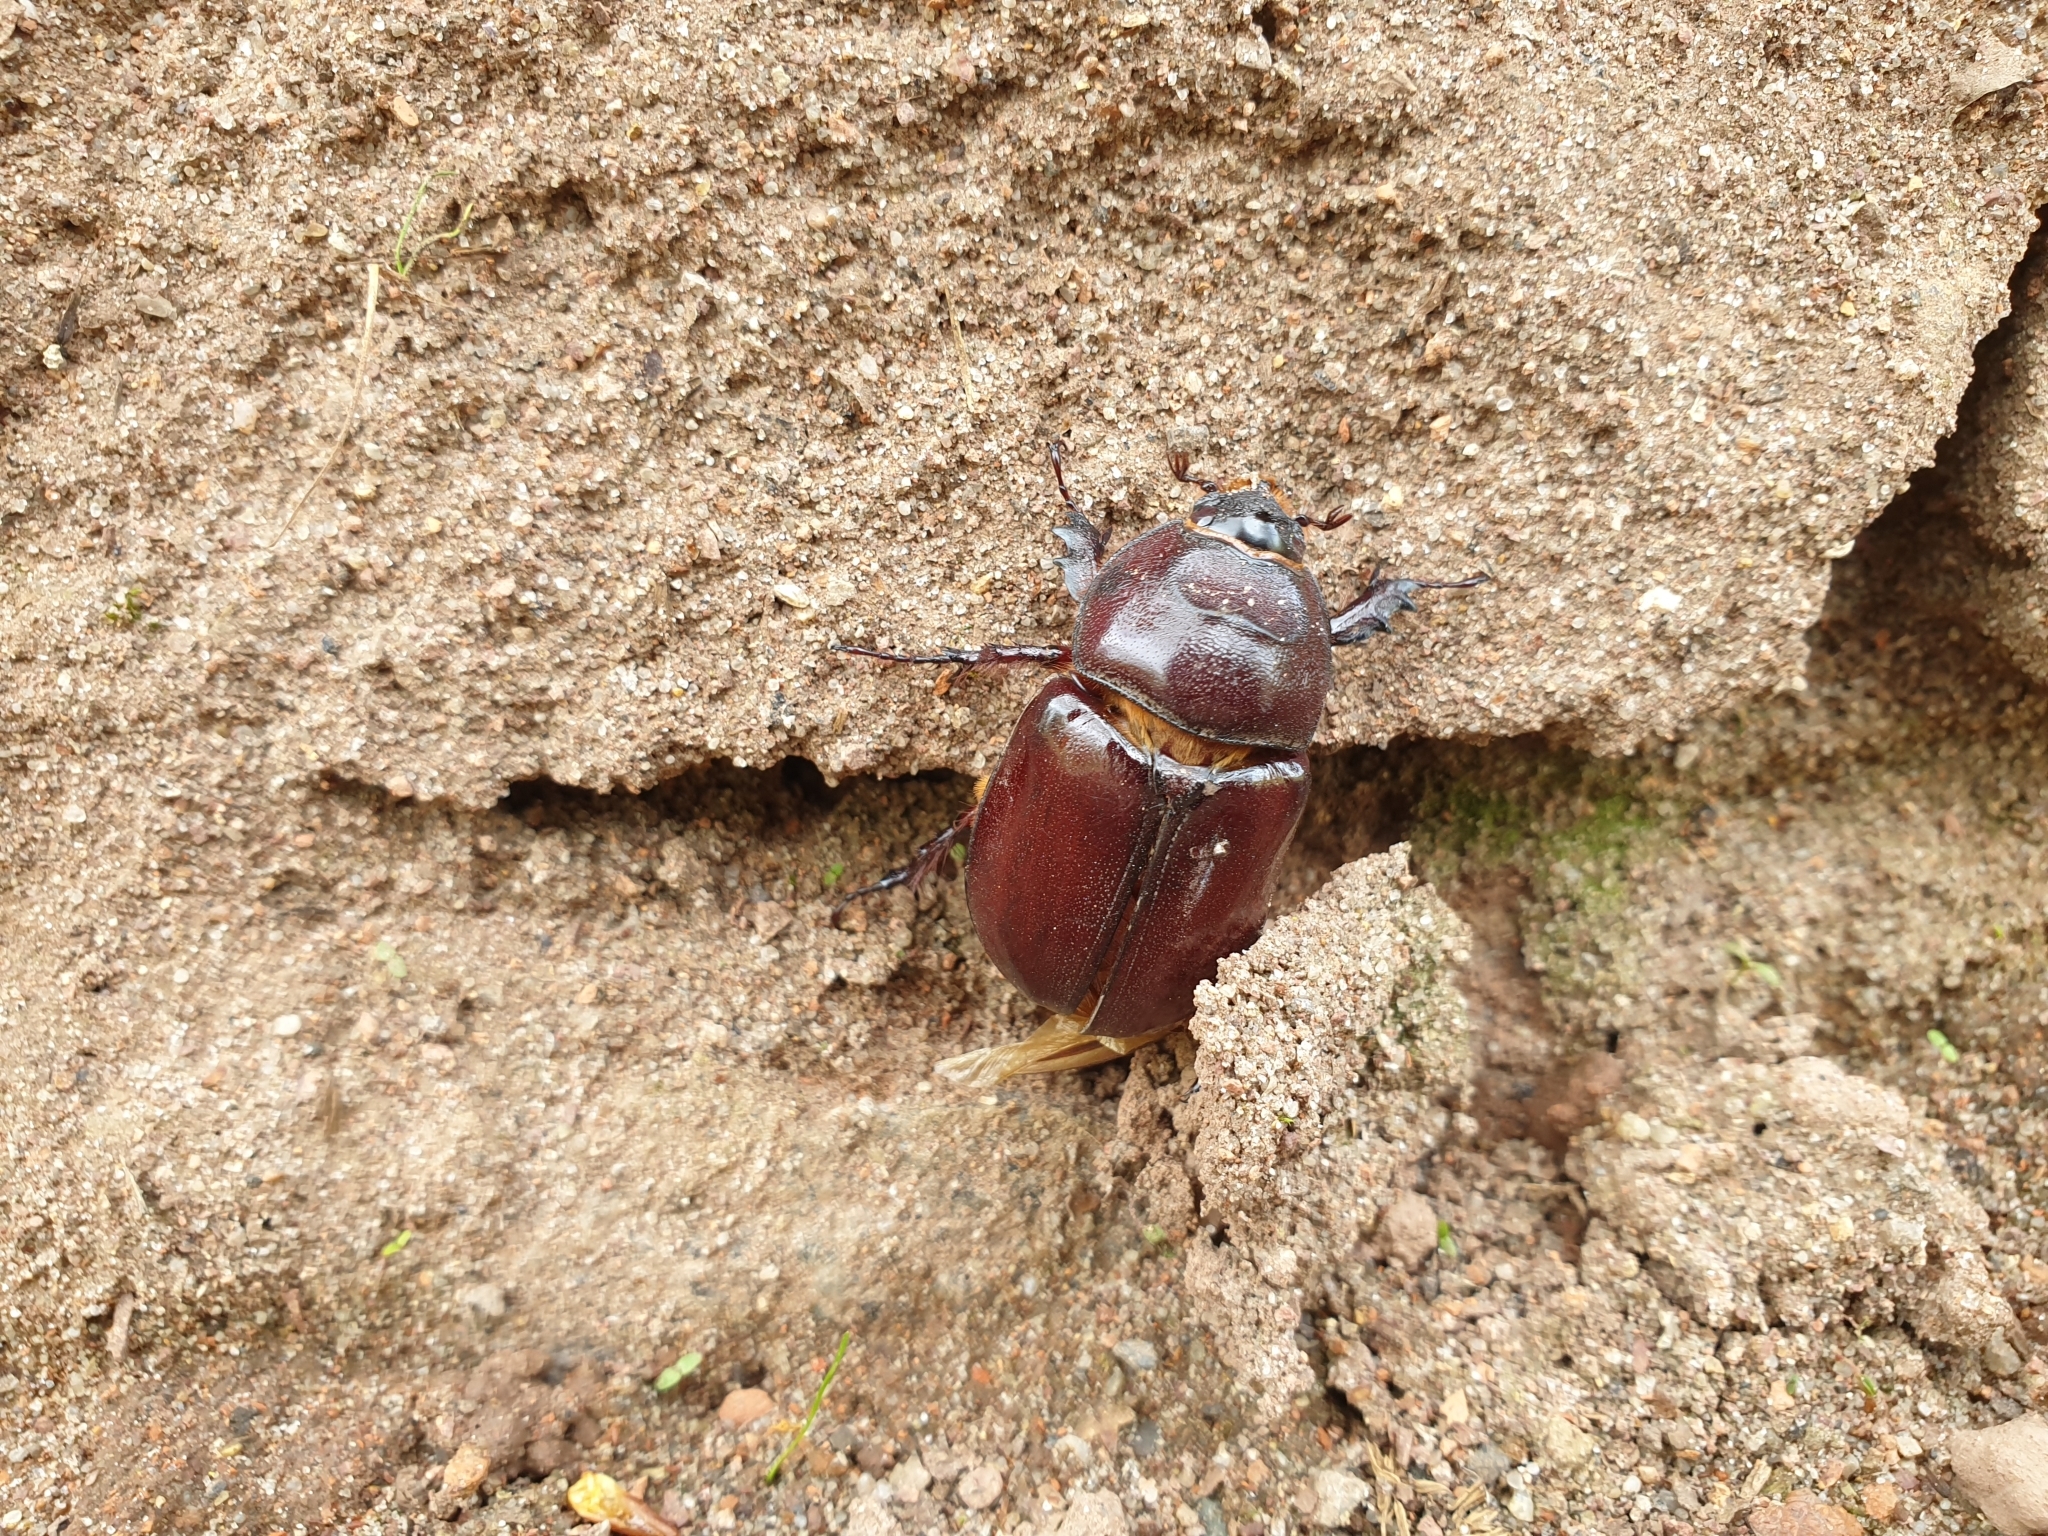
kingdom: Animalia
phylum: Arthropoda
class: Insecta
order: Coleoptera
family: Scarabaeidae
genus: Oryctes
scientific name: Oryctes nasicornis
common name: European rhinoceros beetle
